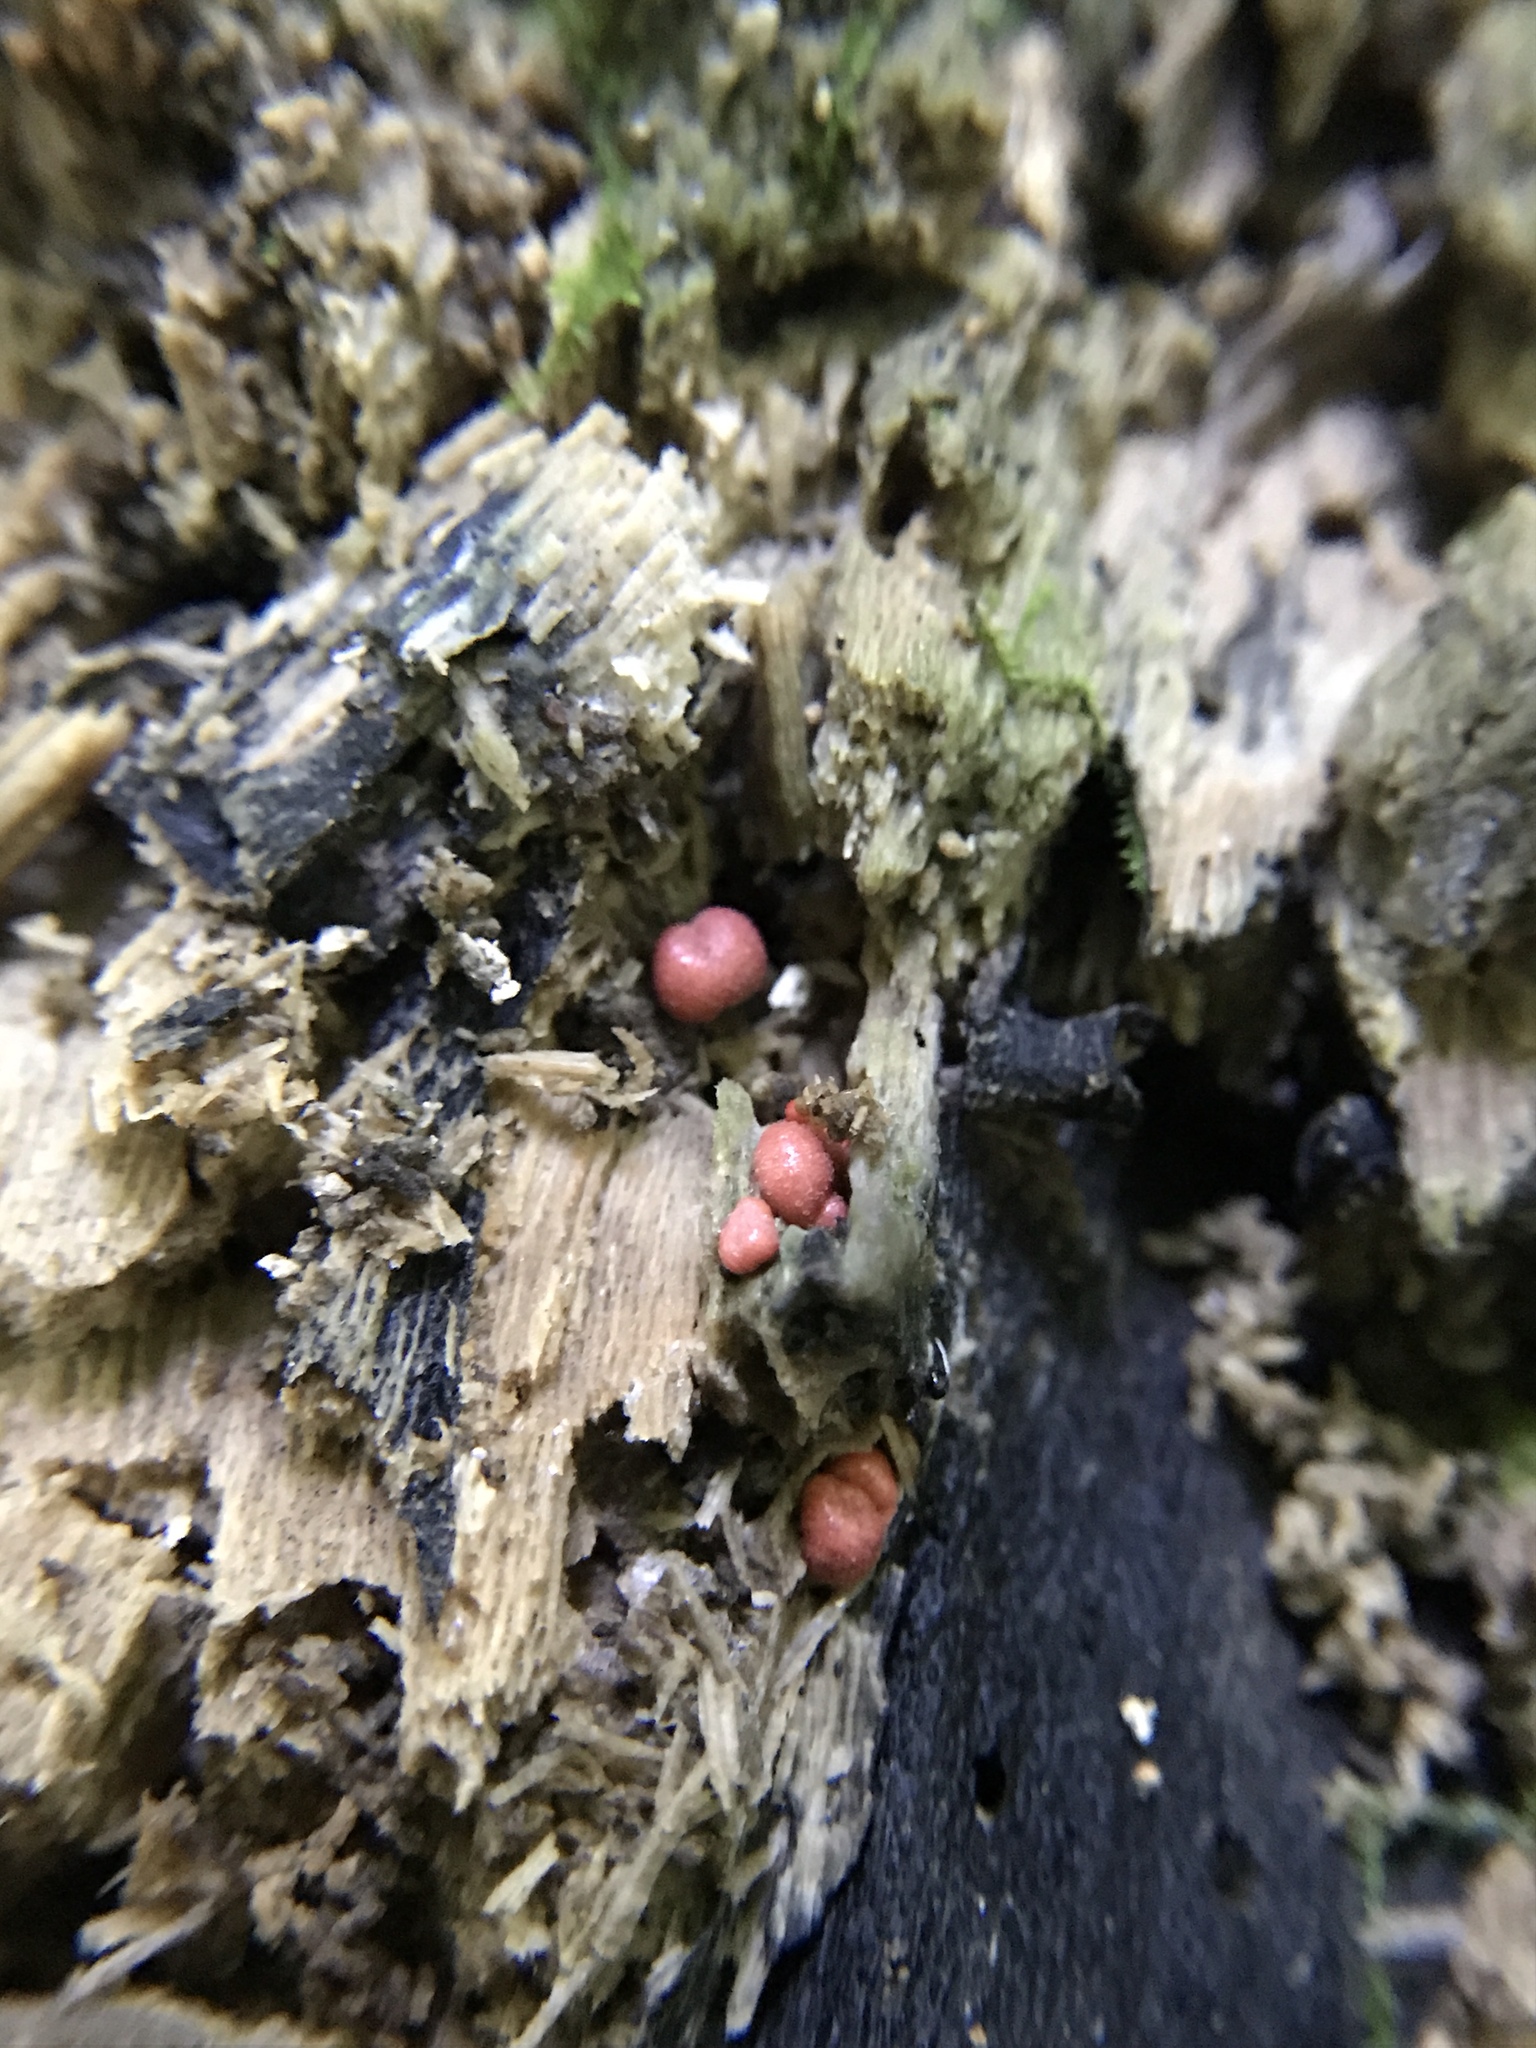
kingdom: Protozoa
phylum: Mycetozoa
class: Myxomycetes
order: Cribrariales
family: Tubiferaceae
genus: Lycogala
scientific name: Lycogala epidendrum
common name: Wolf's milk
